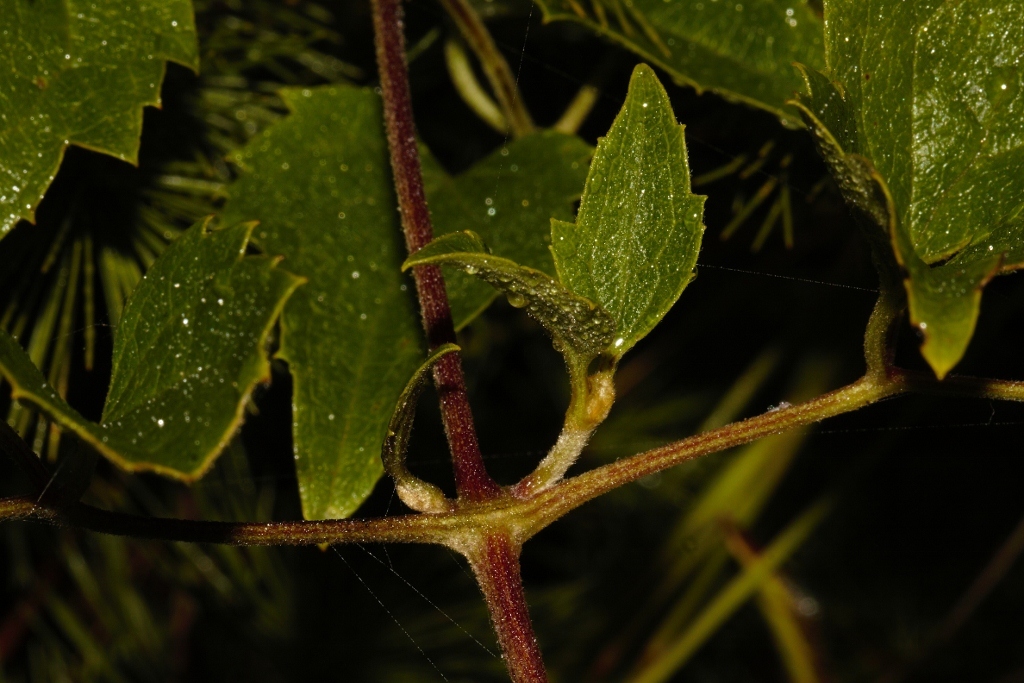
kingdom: Plantae
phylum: Tracheophyta
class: Magnoliopsida
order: Ranunculales
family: Ranunculaceae
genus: Clematis
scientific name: Clematis brachiata
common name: Traveler's-joy
